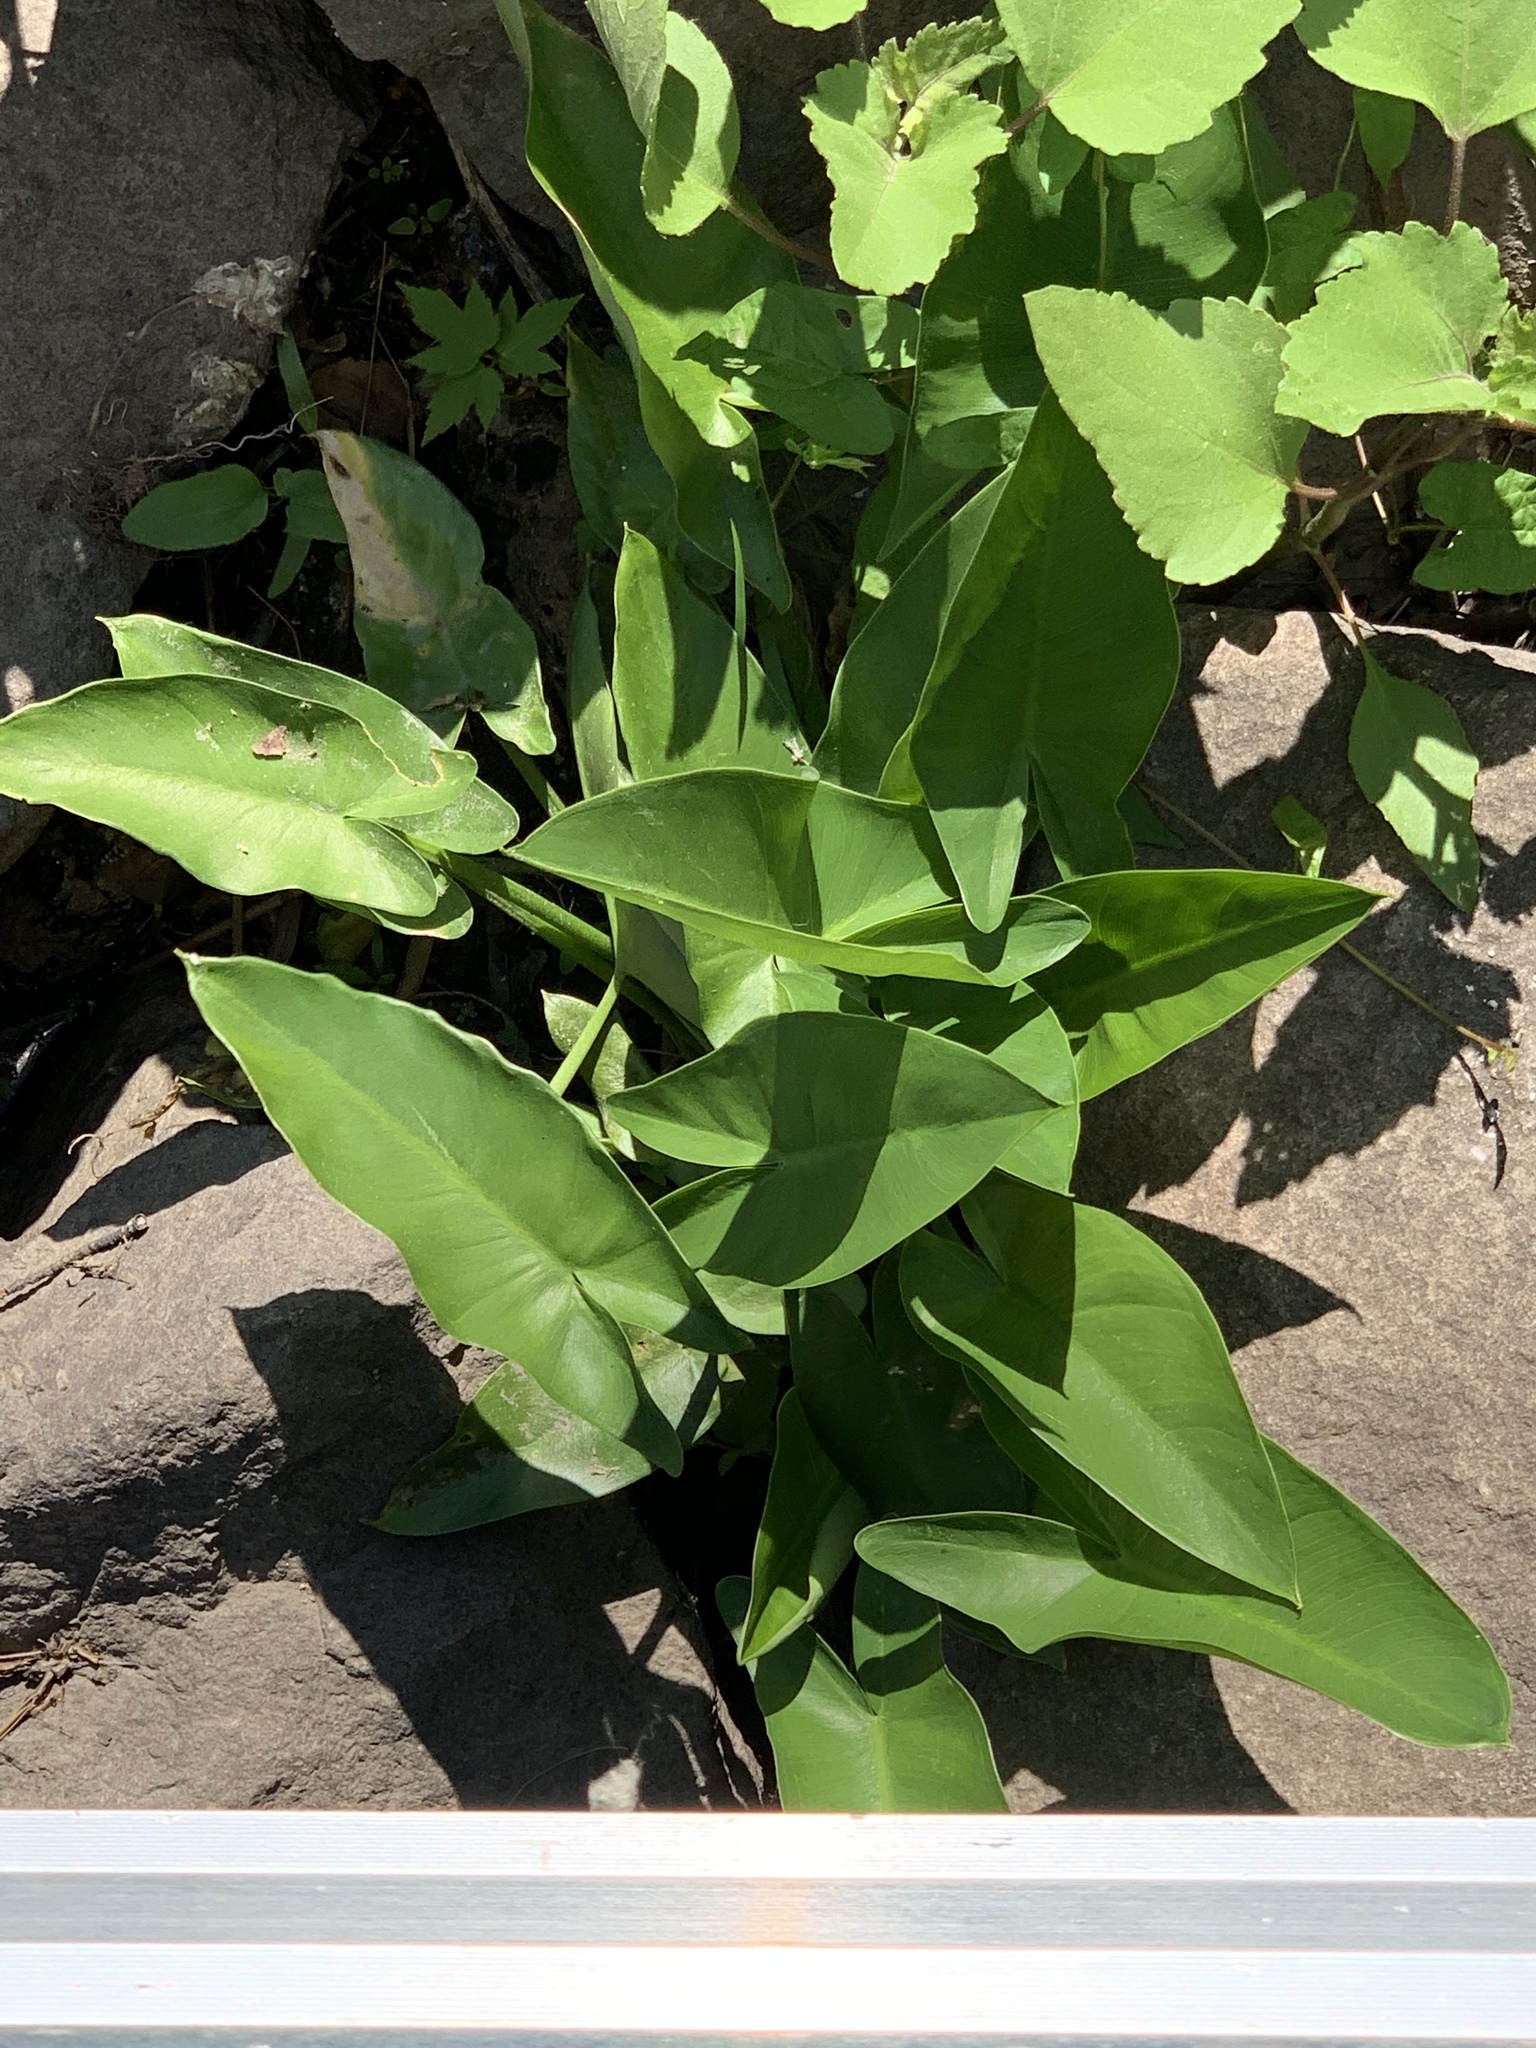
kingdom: Plantae
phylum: Tracheophyta
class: Liliopsida
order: Alismatales
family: Araceae
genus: Peltandra
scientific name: Peltandra virginica
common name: Arrow arum
